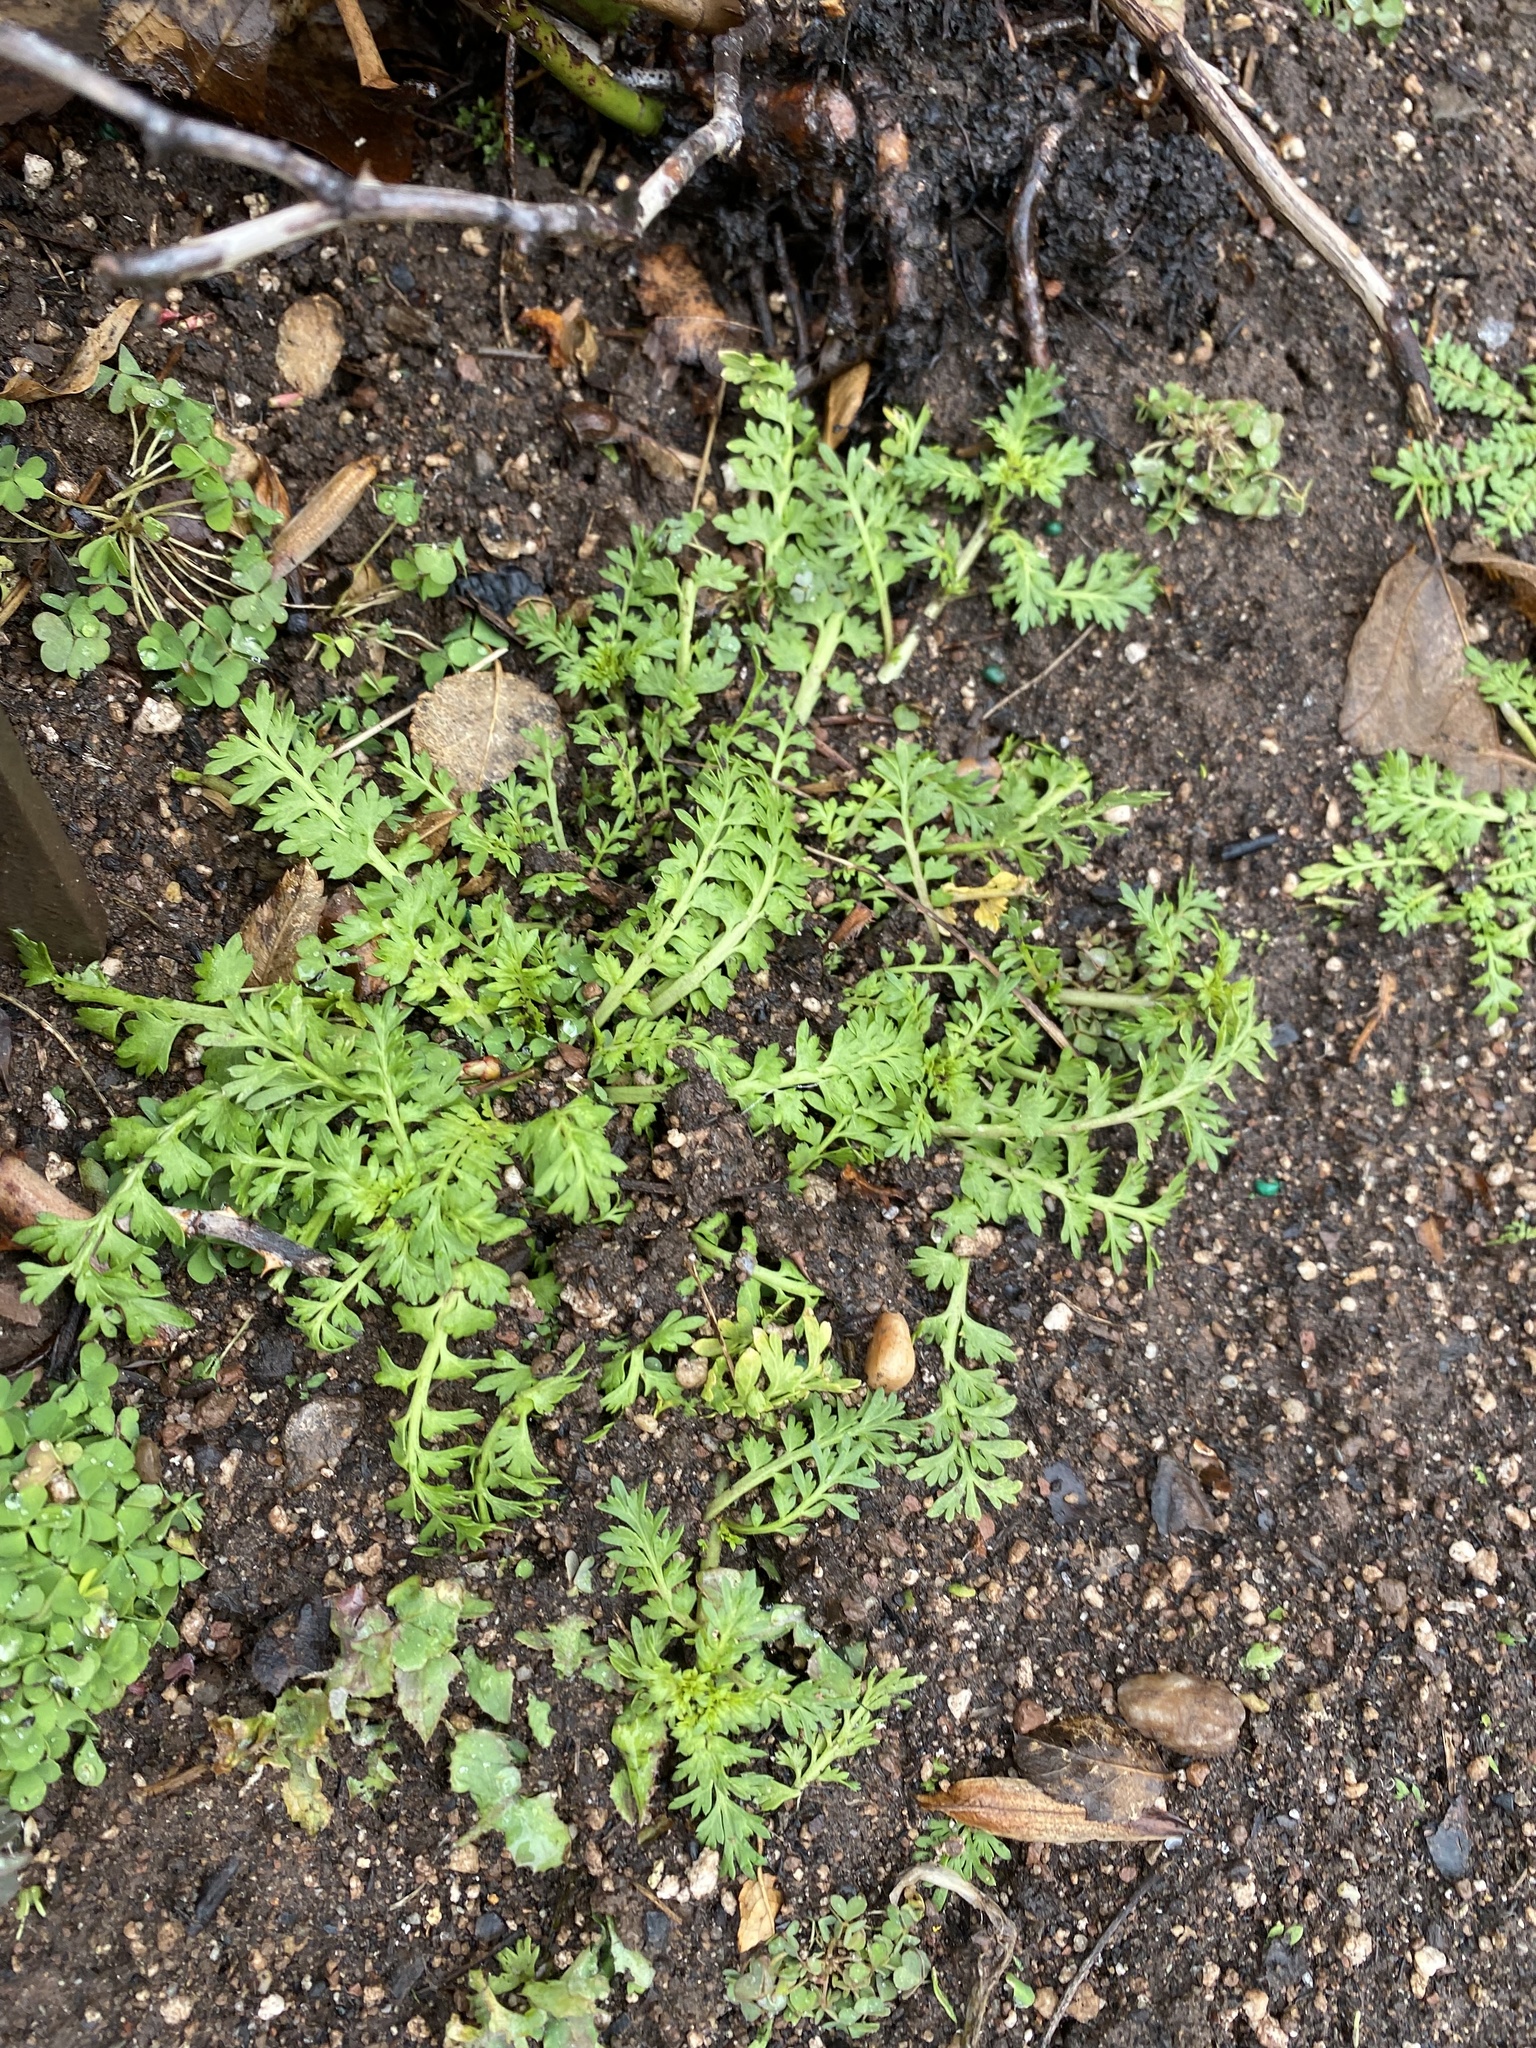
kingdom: Plantae
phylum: Tracheophyta
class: Magnoliopsida
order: Brassicales
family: Brassicaceae
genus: Lepidium
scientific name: Lepidium didymum
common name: Lesser swinecress
